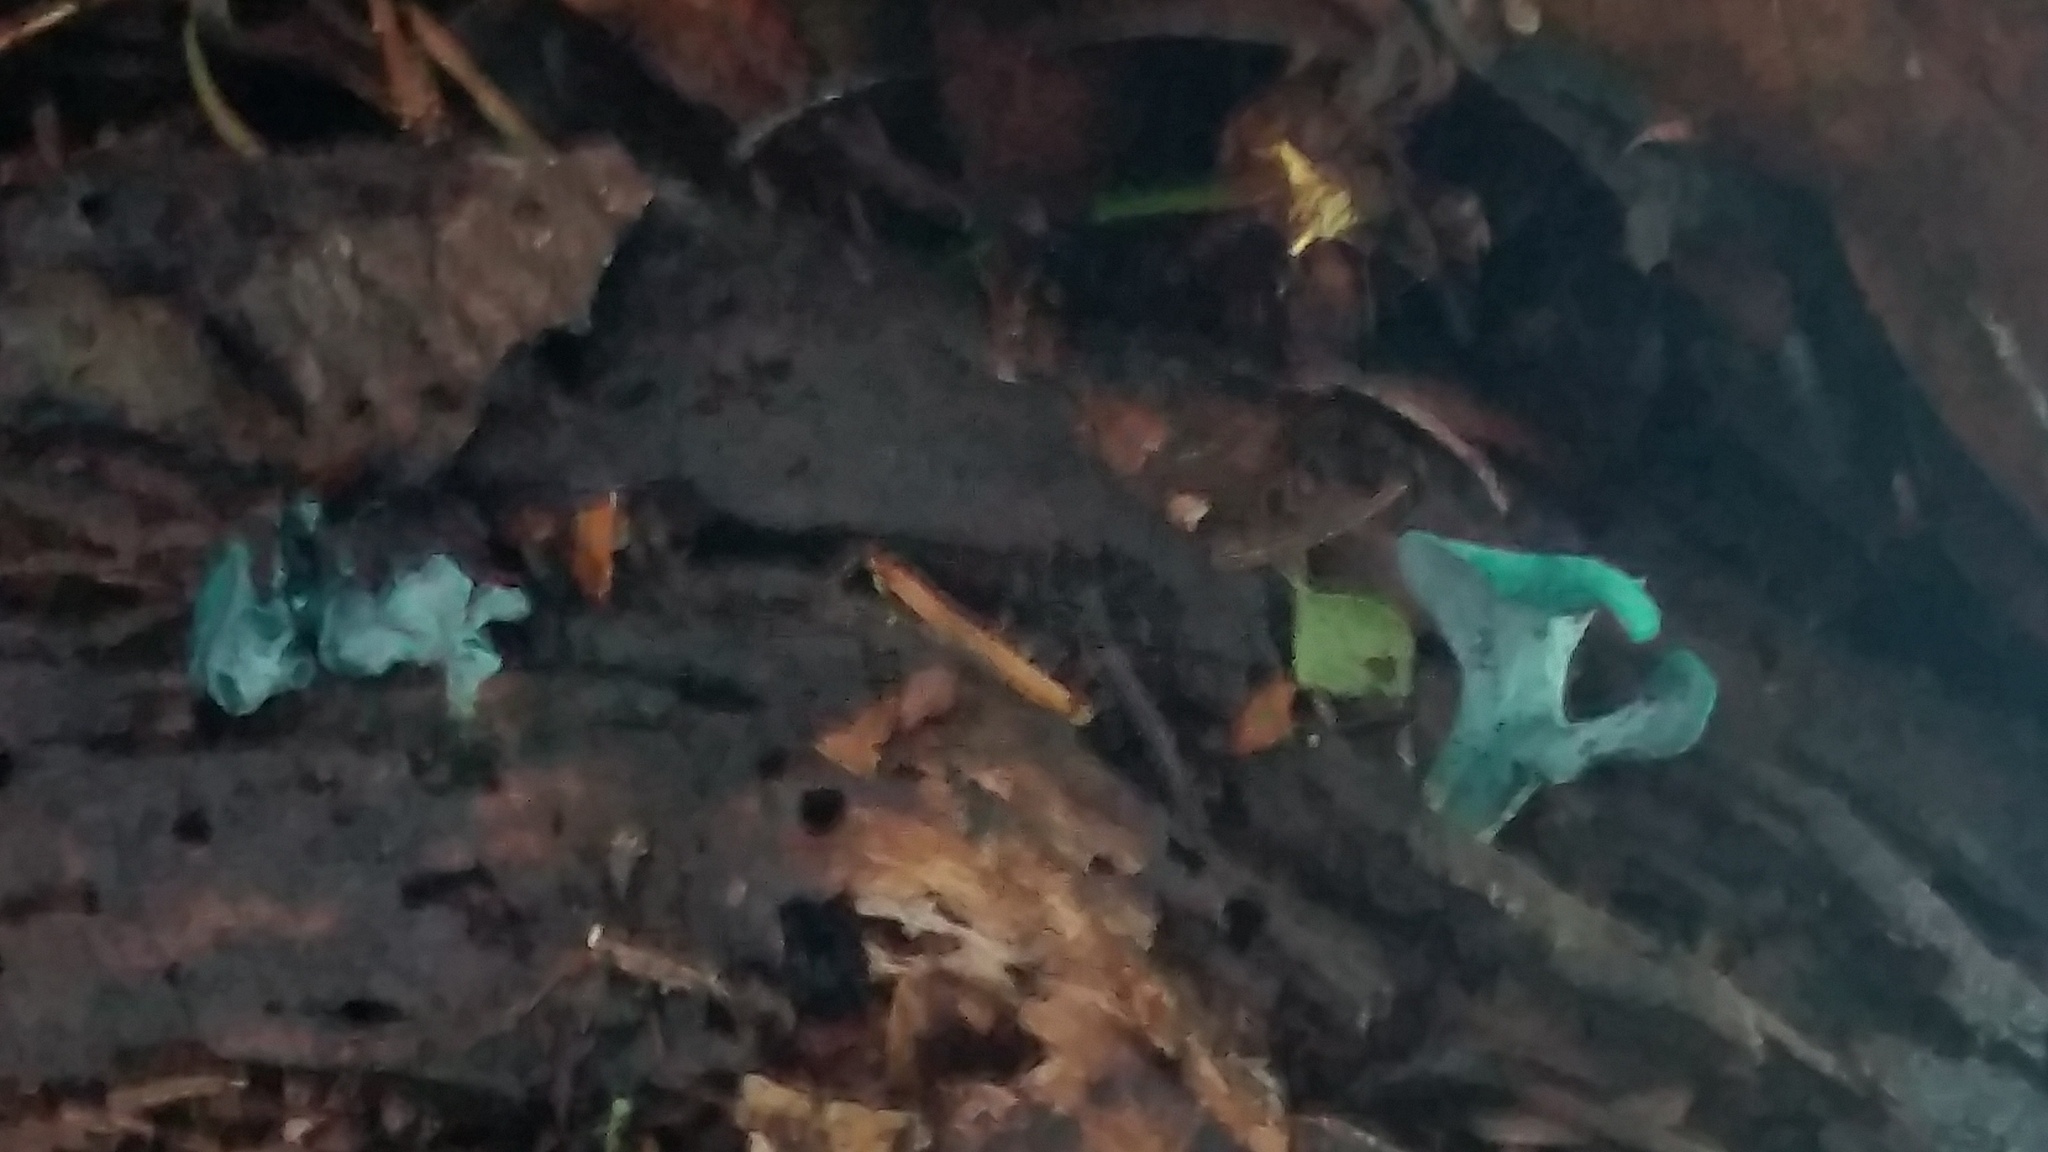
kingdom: Fungi
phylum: Ascomycota
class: Leotiomycetes
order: Helotiales
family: Chlorociboriaceae
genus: Chlorociboria
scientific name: Chlorociboria aeruginascens
